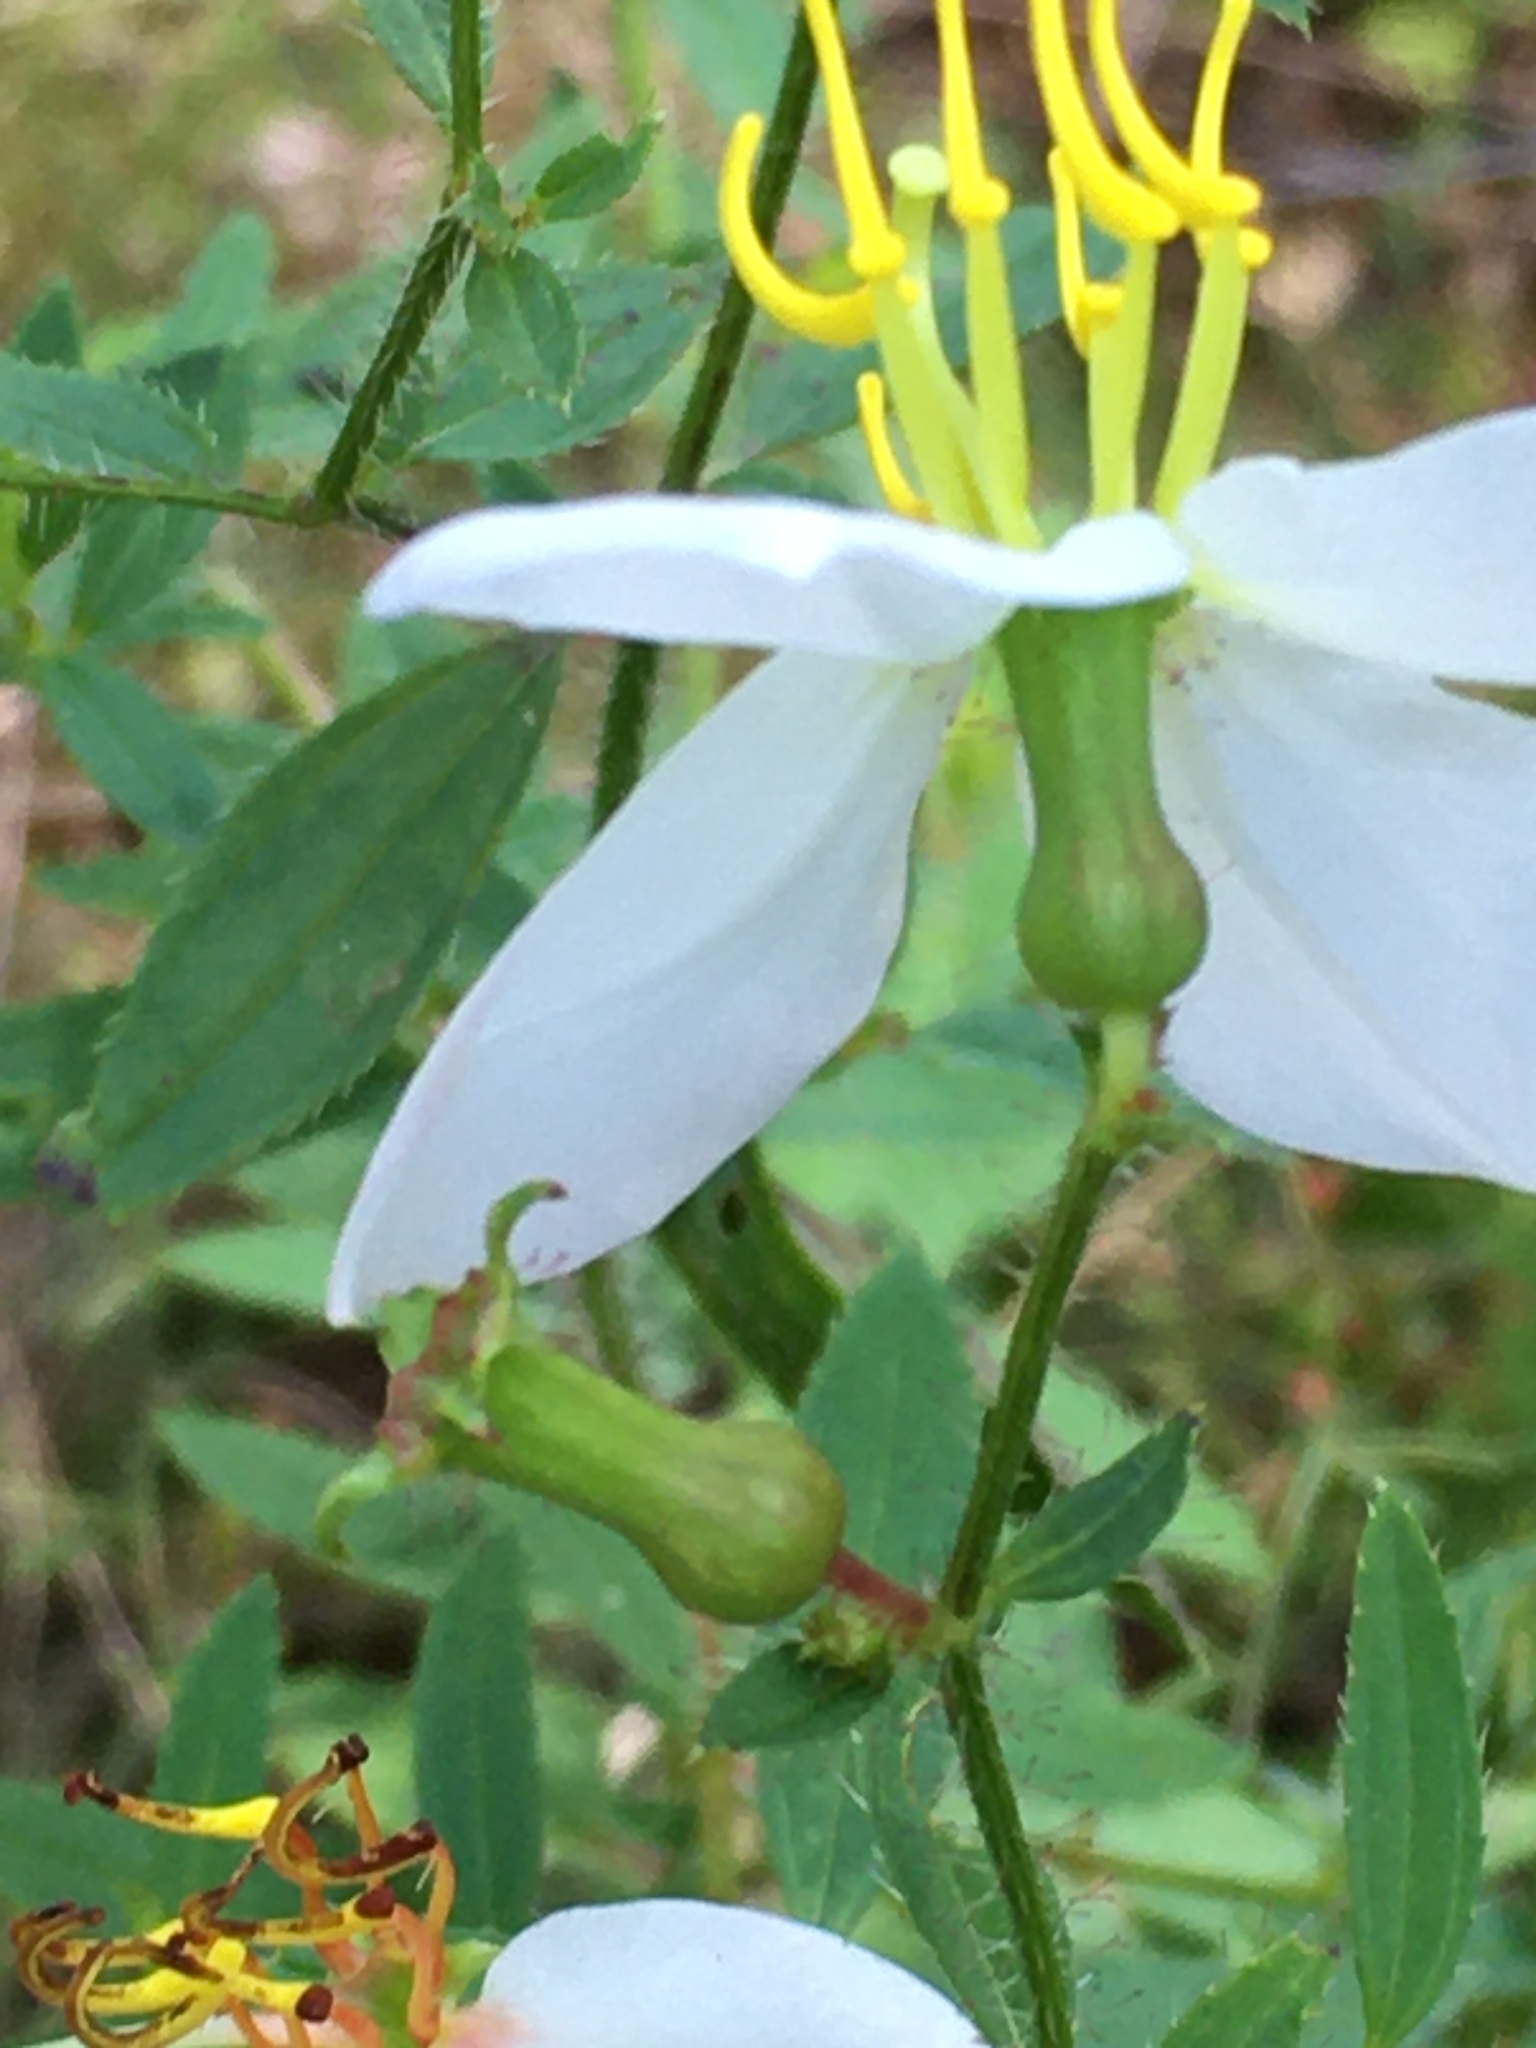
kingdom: Plantae
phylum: Tracheophyta
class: Magnoliopsida
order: Myrtales
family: Melastomataceae
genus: Rhexia
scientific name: Rhexia mariana
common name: Dull meadow-pitcher
